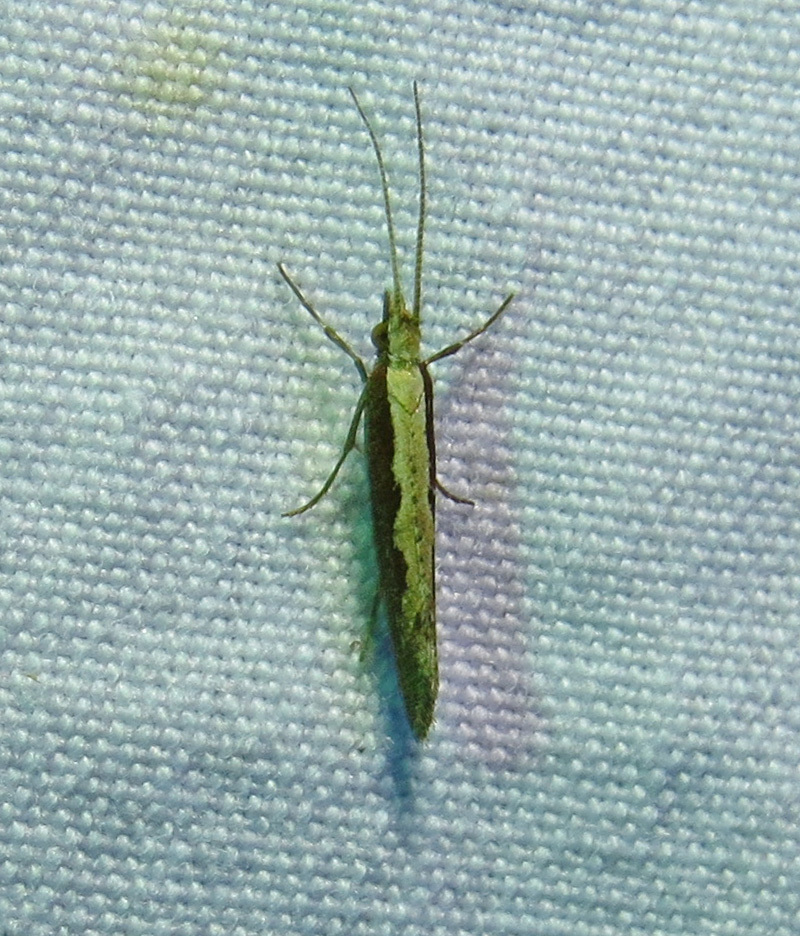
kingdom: Animalia
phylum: Arthropoda
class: Insecta
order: Lepidoptera
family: Plutellidae
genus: Plutella
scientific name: Plutella xylostella
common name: Diamond-back moth
